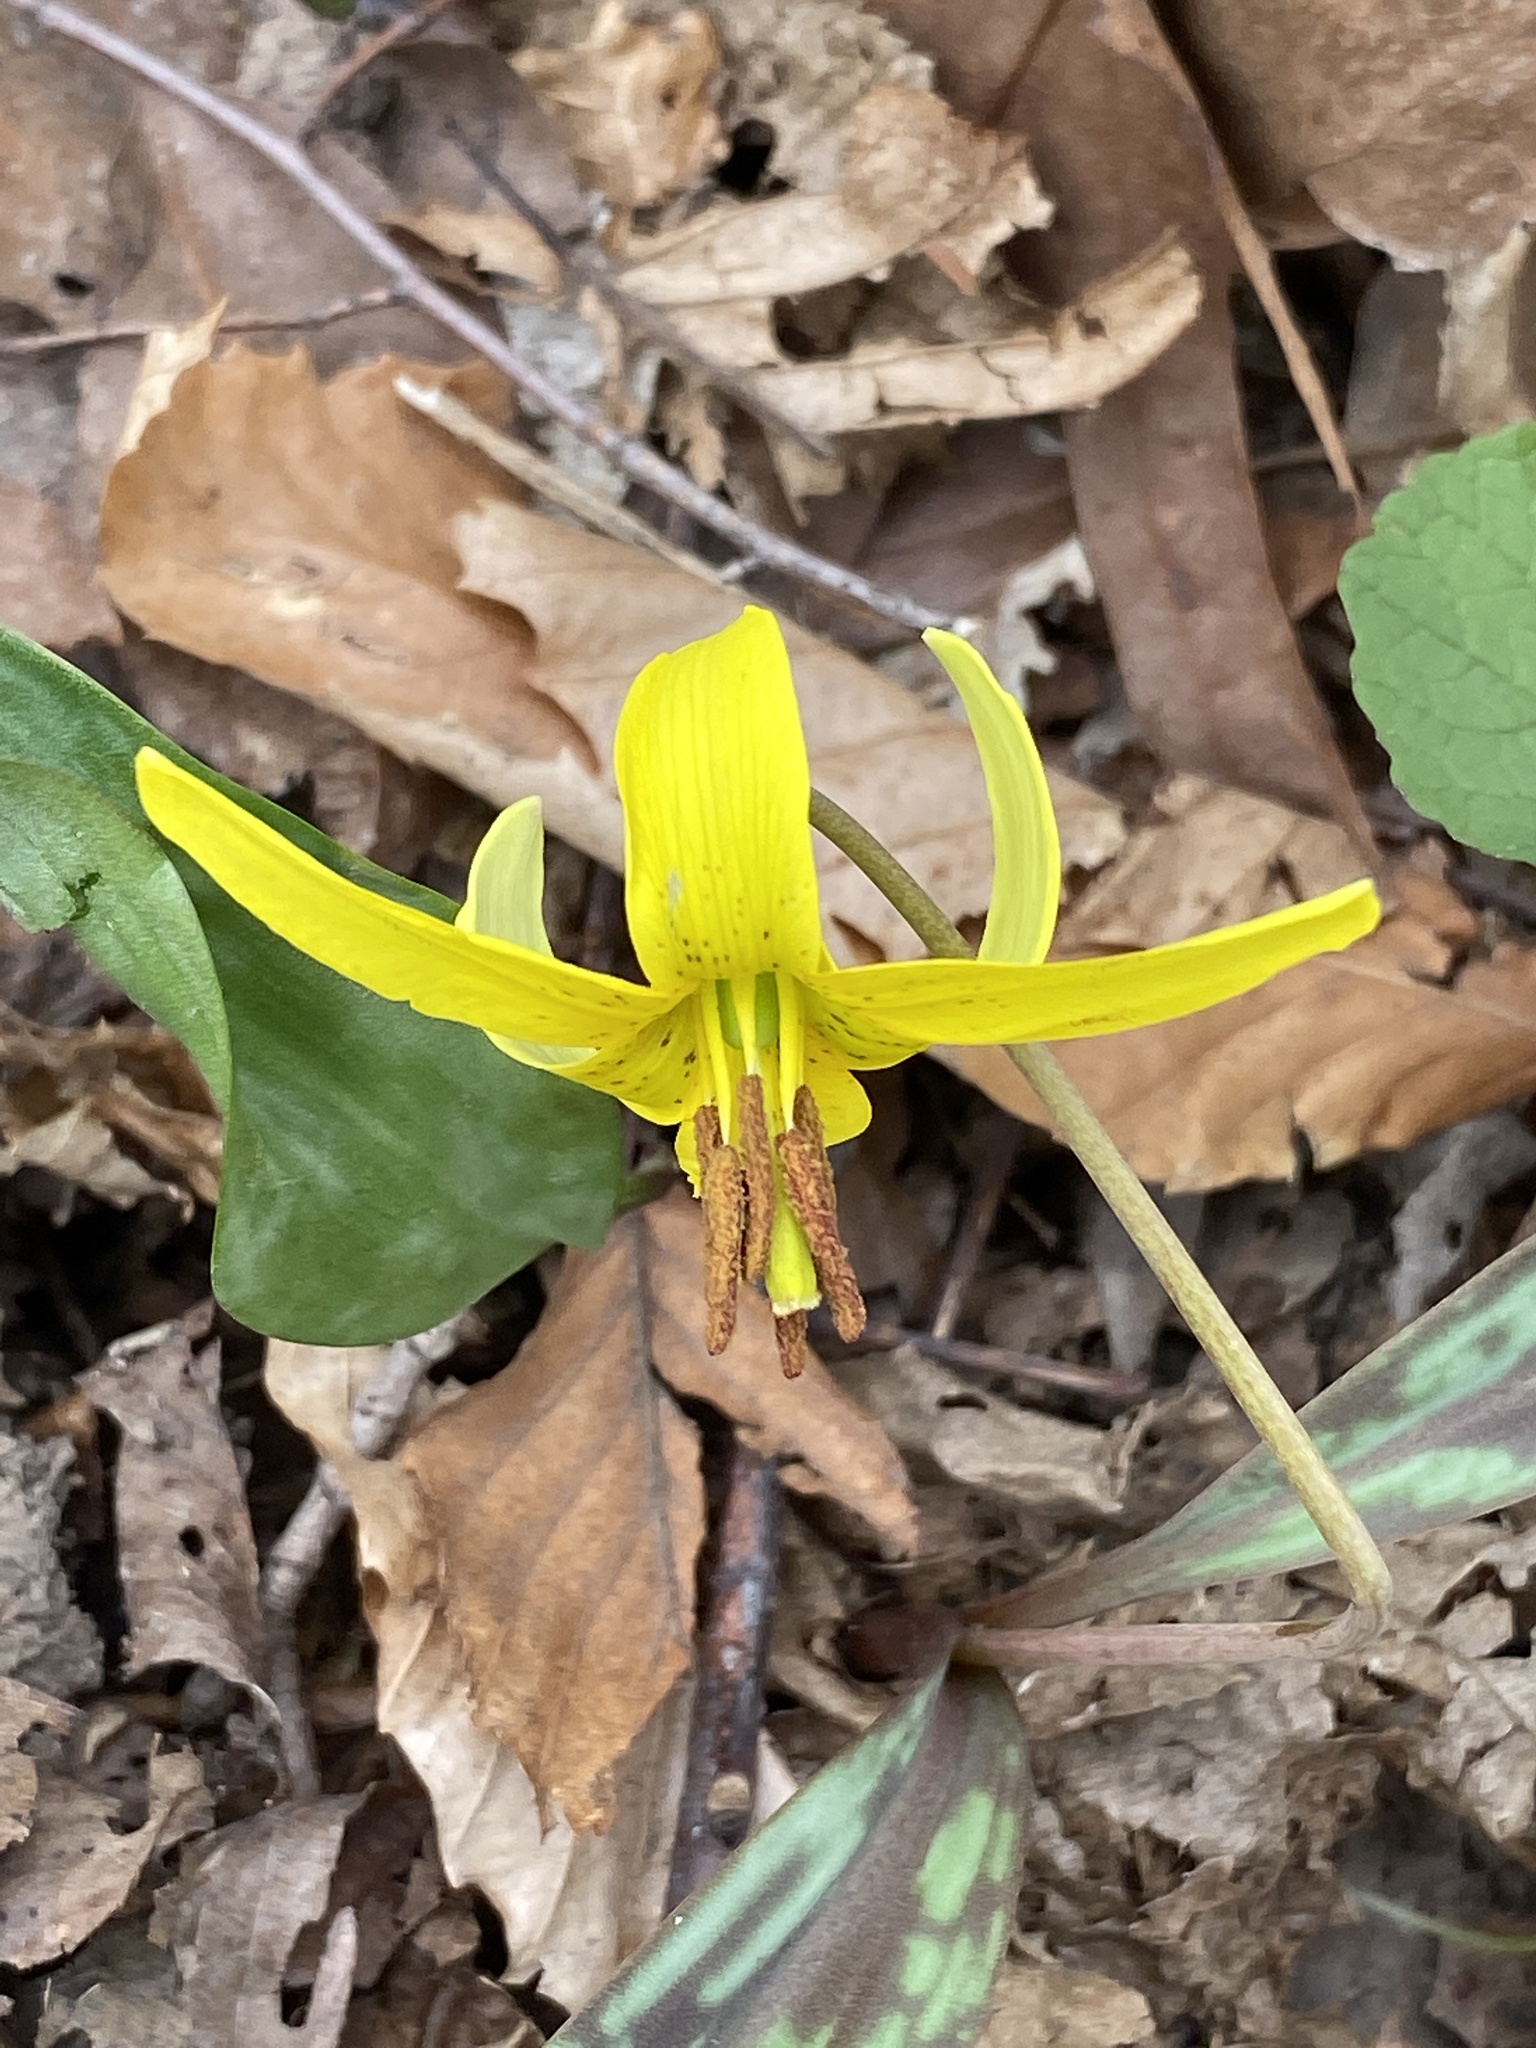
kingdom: Plantae
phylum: Tracheophyta
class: Liliopsida
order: Liliales
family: Liliaceae
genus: Erythronium
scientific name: Erythronium americanum
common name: Yellow adder's-tongue
